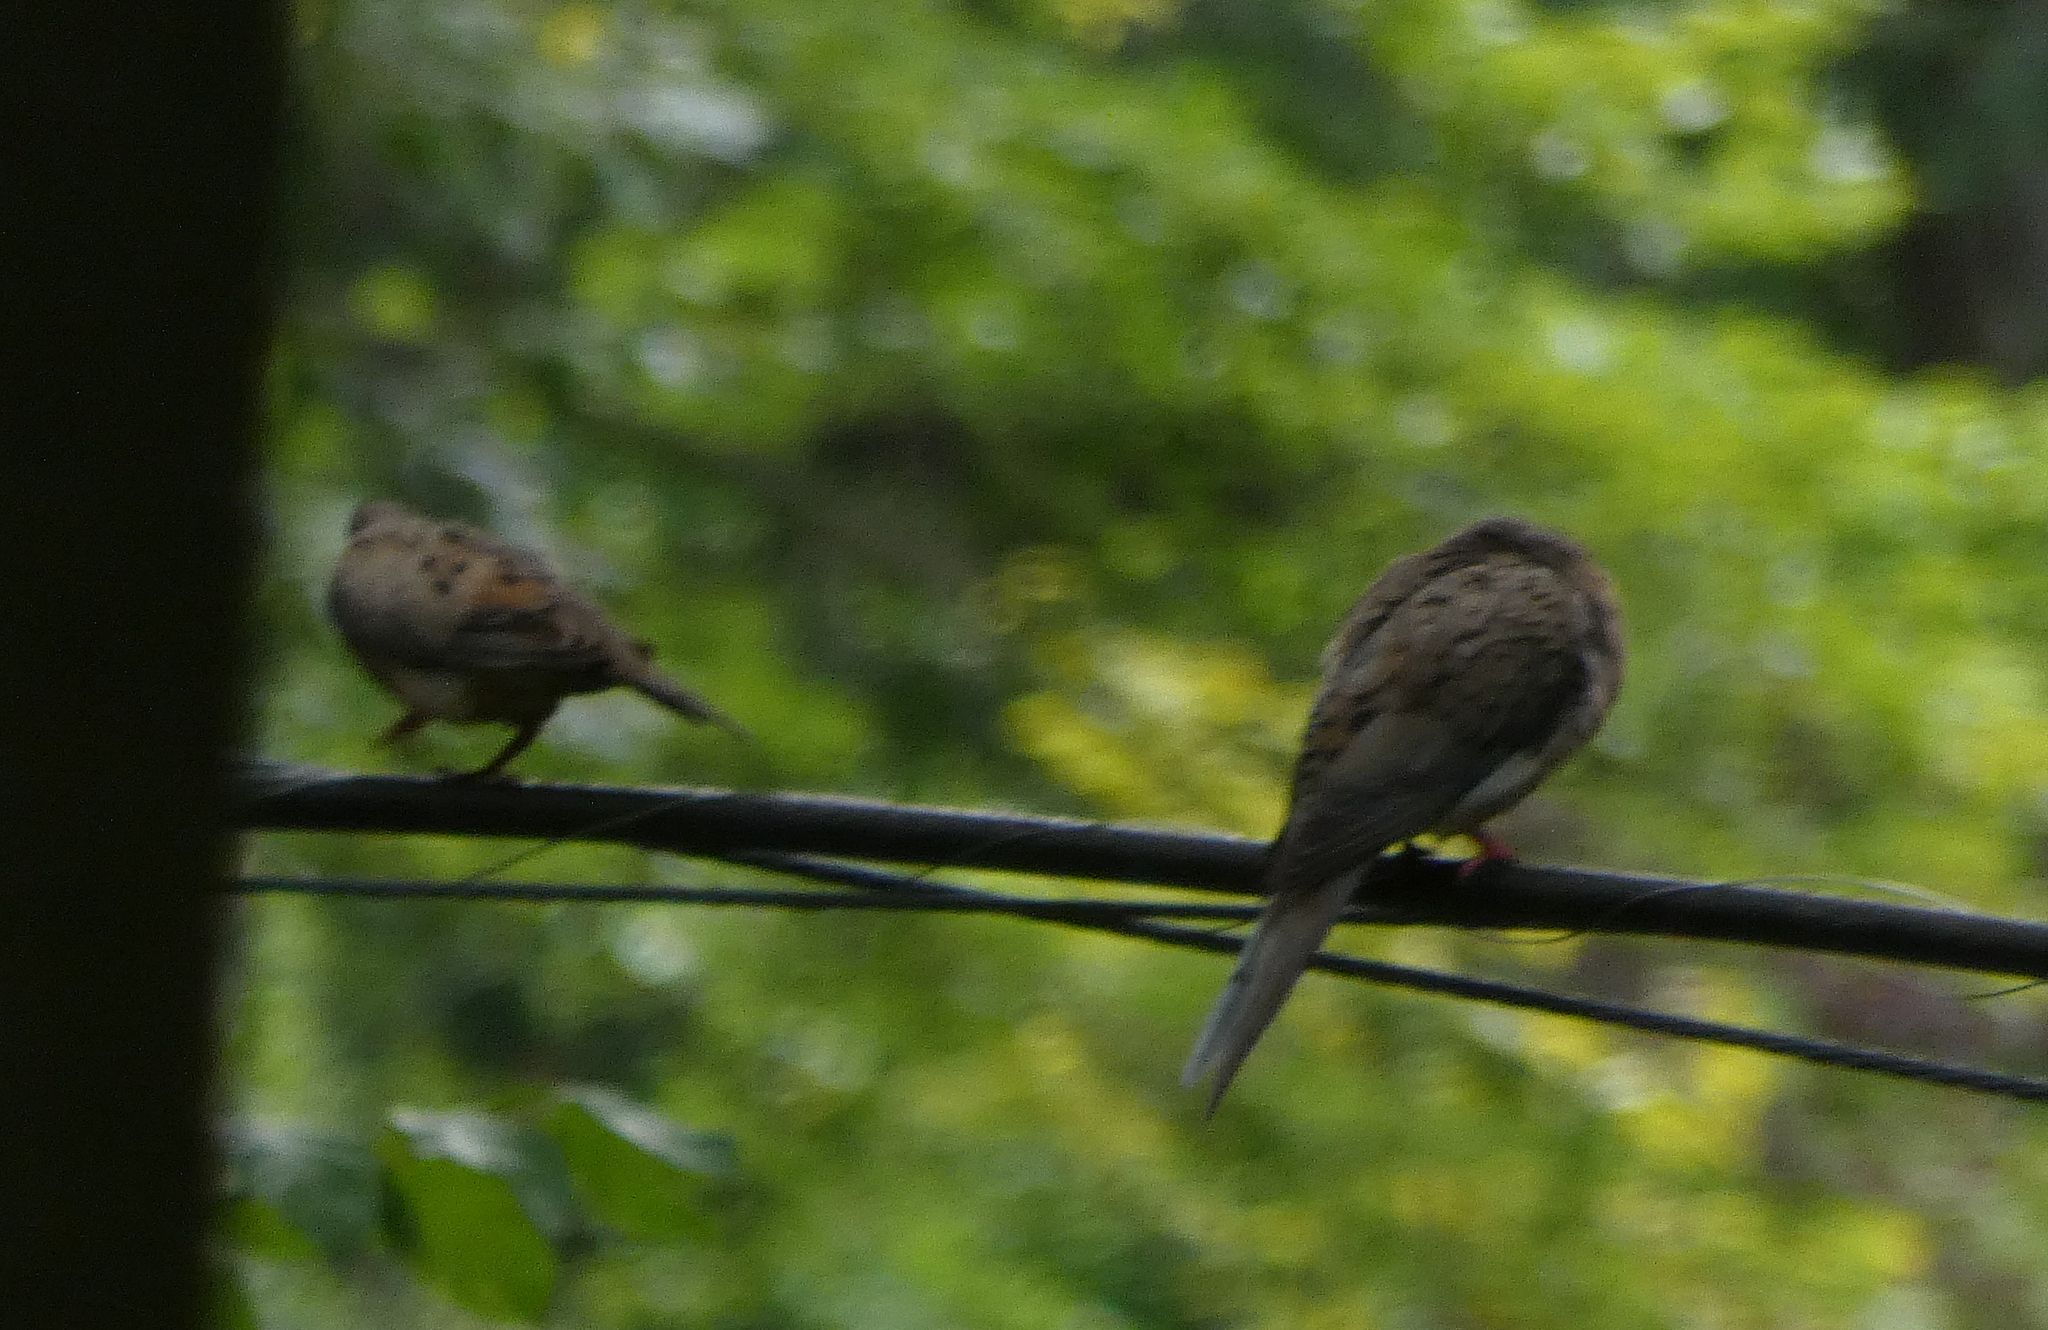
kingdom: Animalia
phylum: Chordata
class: Aves
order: Columbiformes
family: Columbidae
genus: Zenaida
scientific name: Zenaida macroura
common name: Mourning dove
